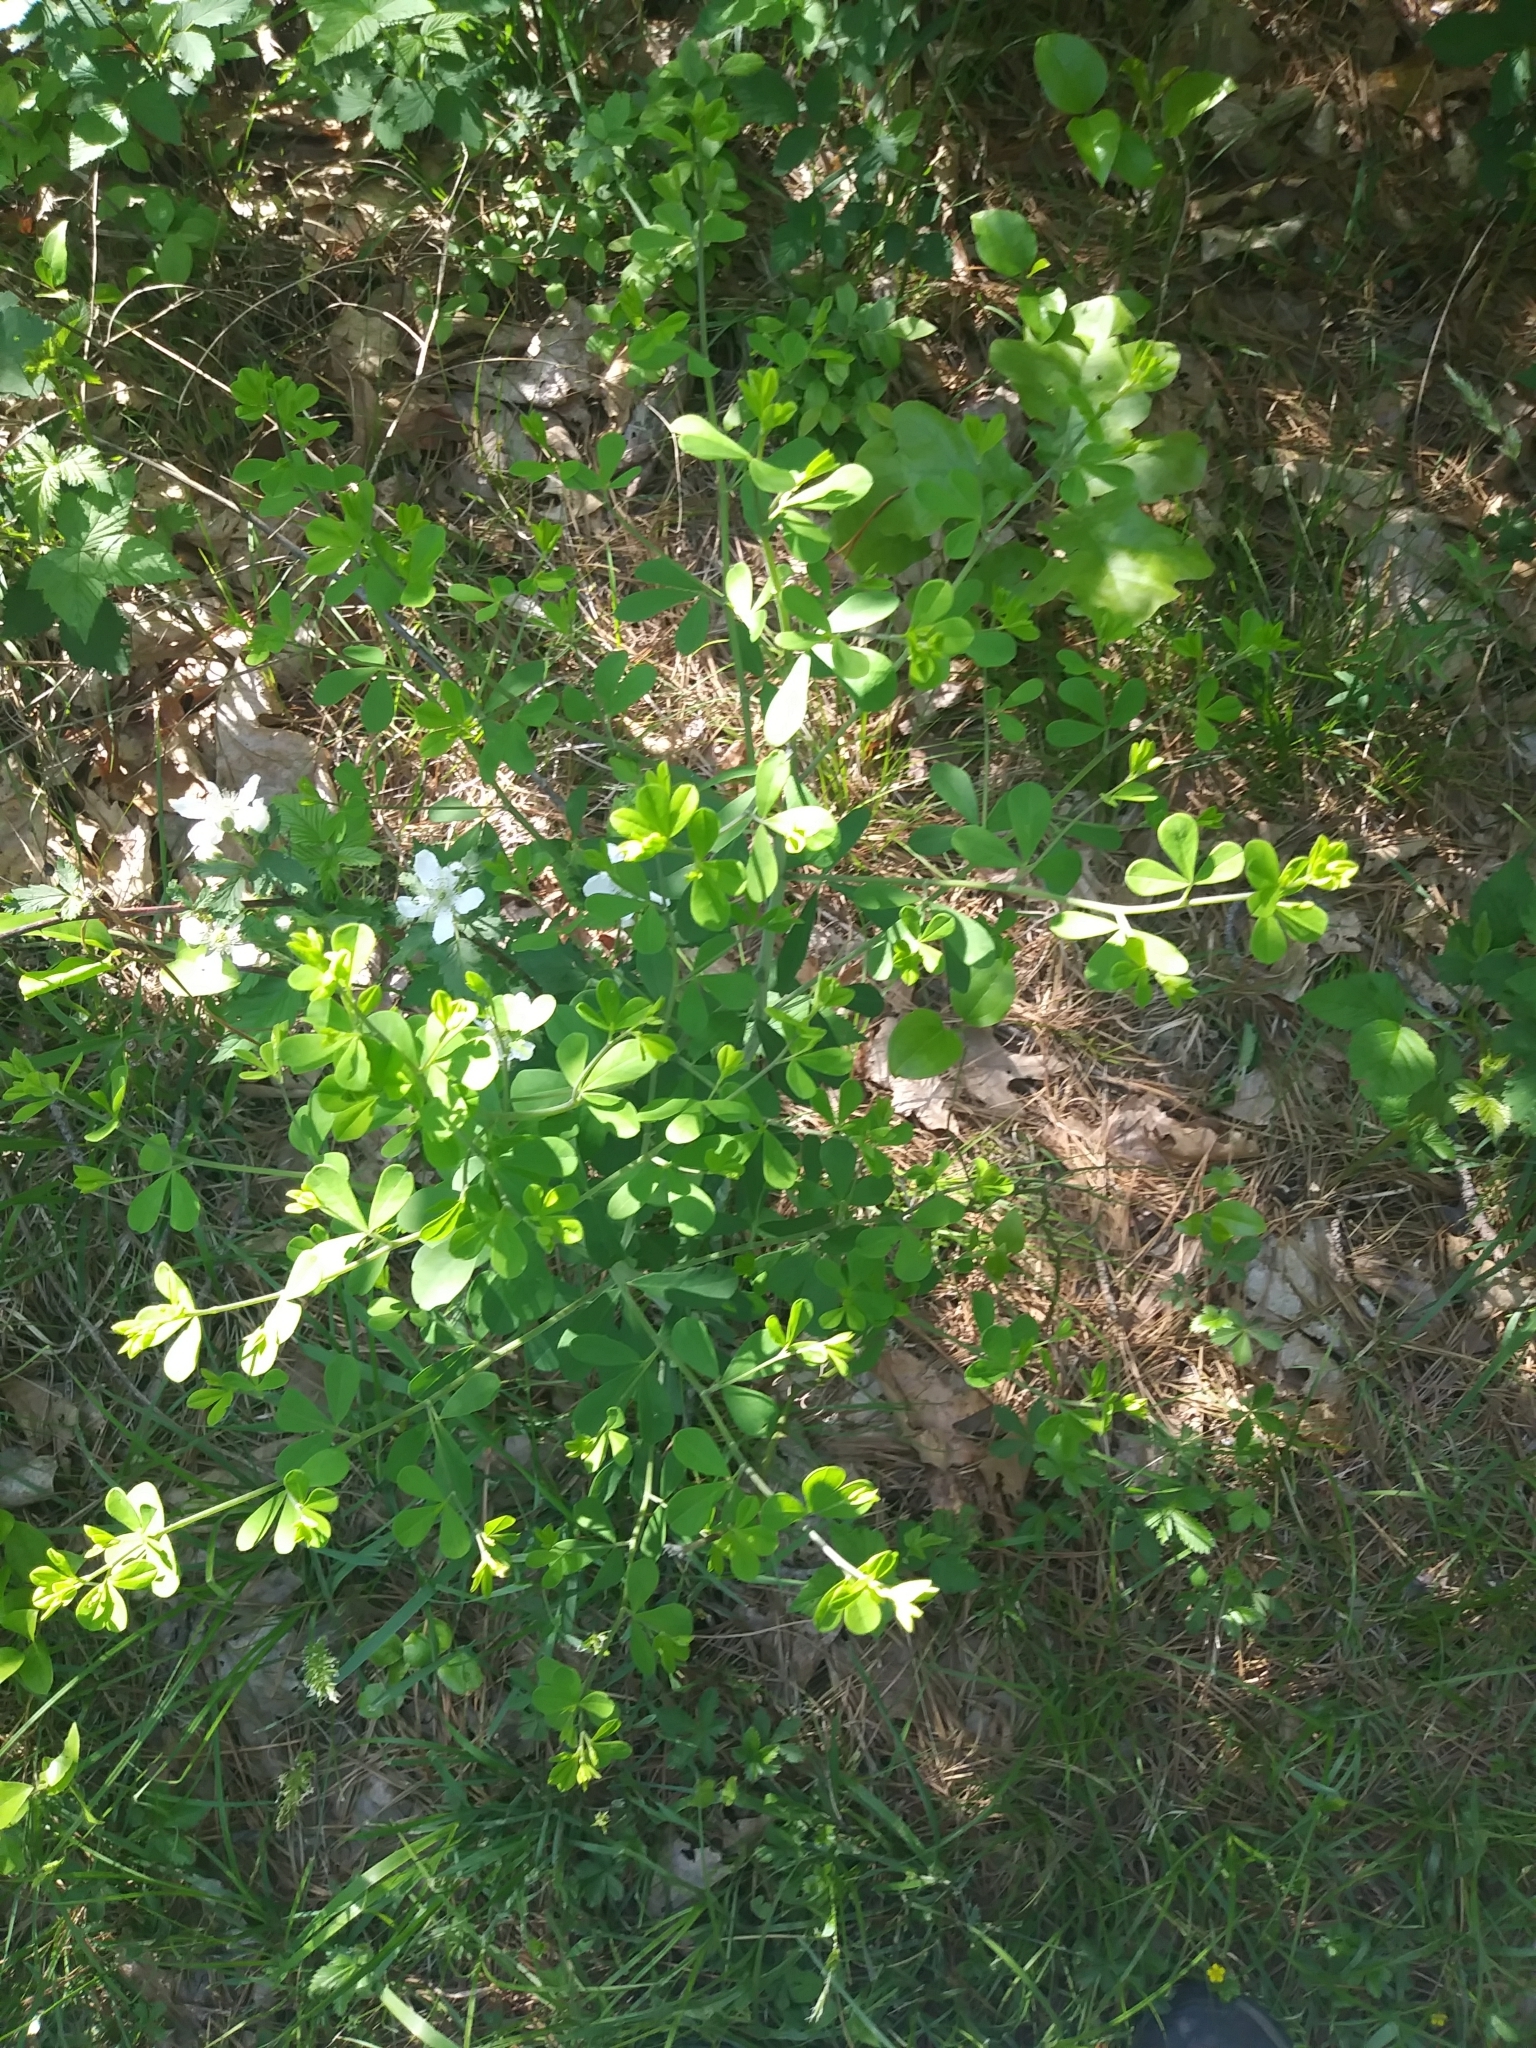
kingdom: Plantae
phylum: Tracheophyta
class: Magnoliopsida
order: Fabales
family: Fabaceae
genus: Baptisia
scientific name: Baptisia tinctoria
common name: Wild indigo
